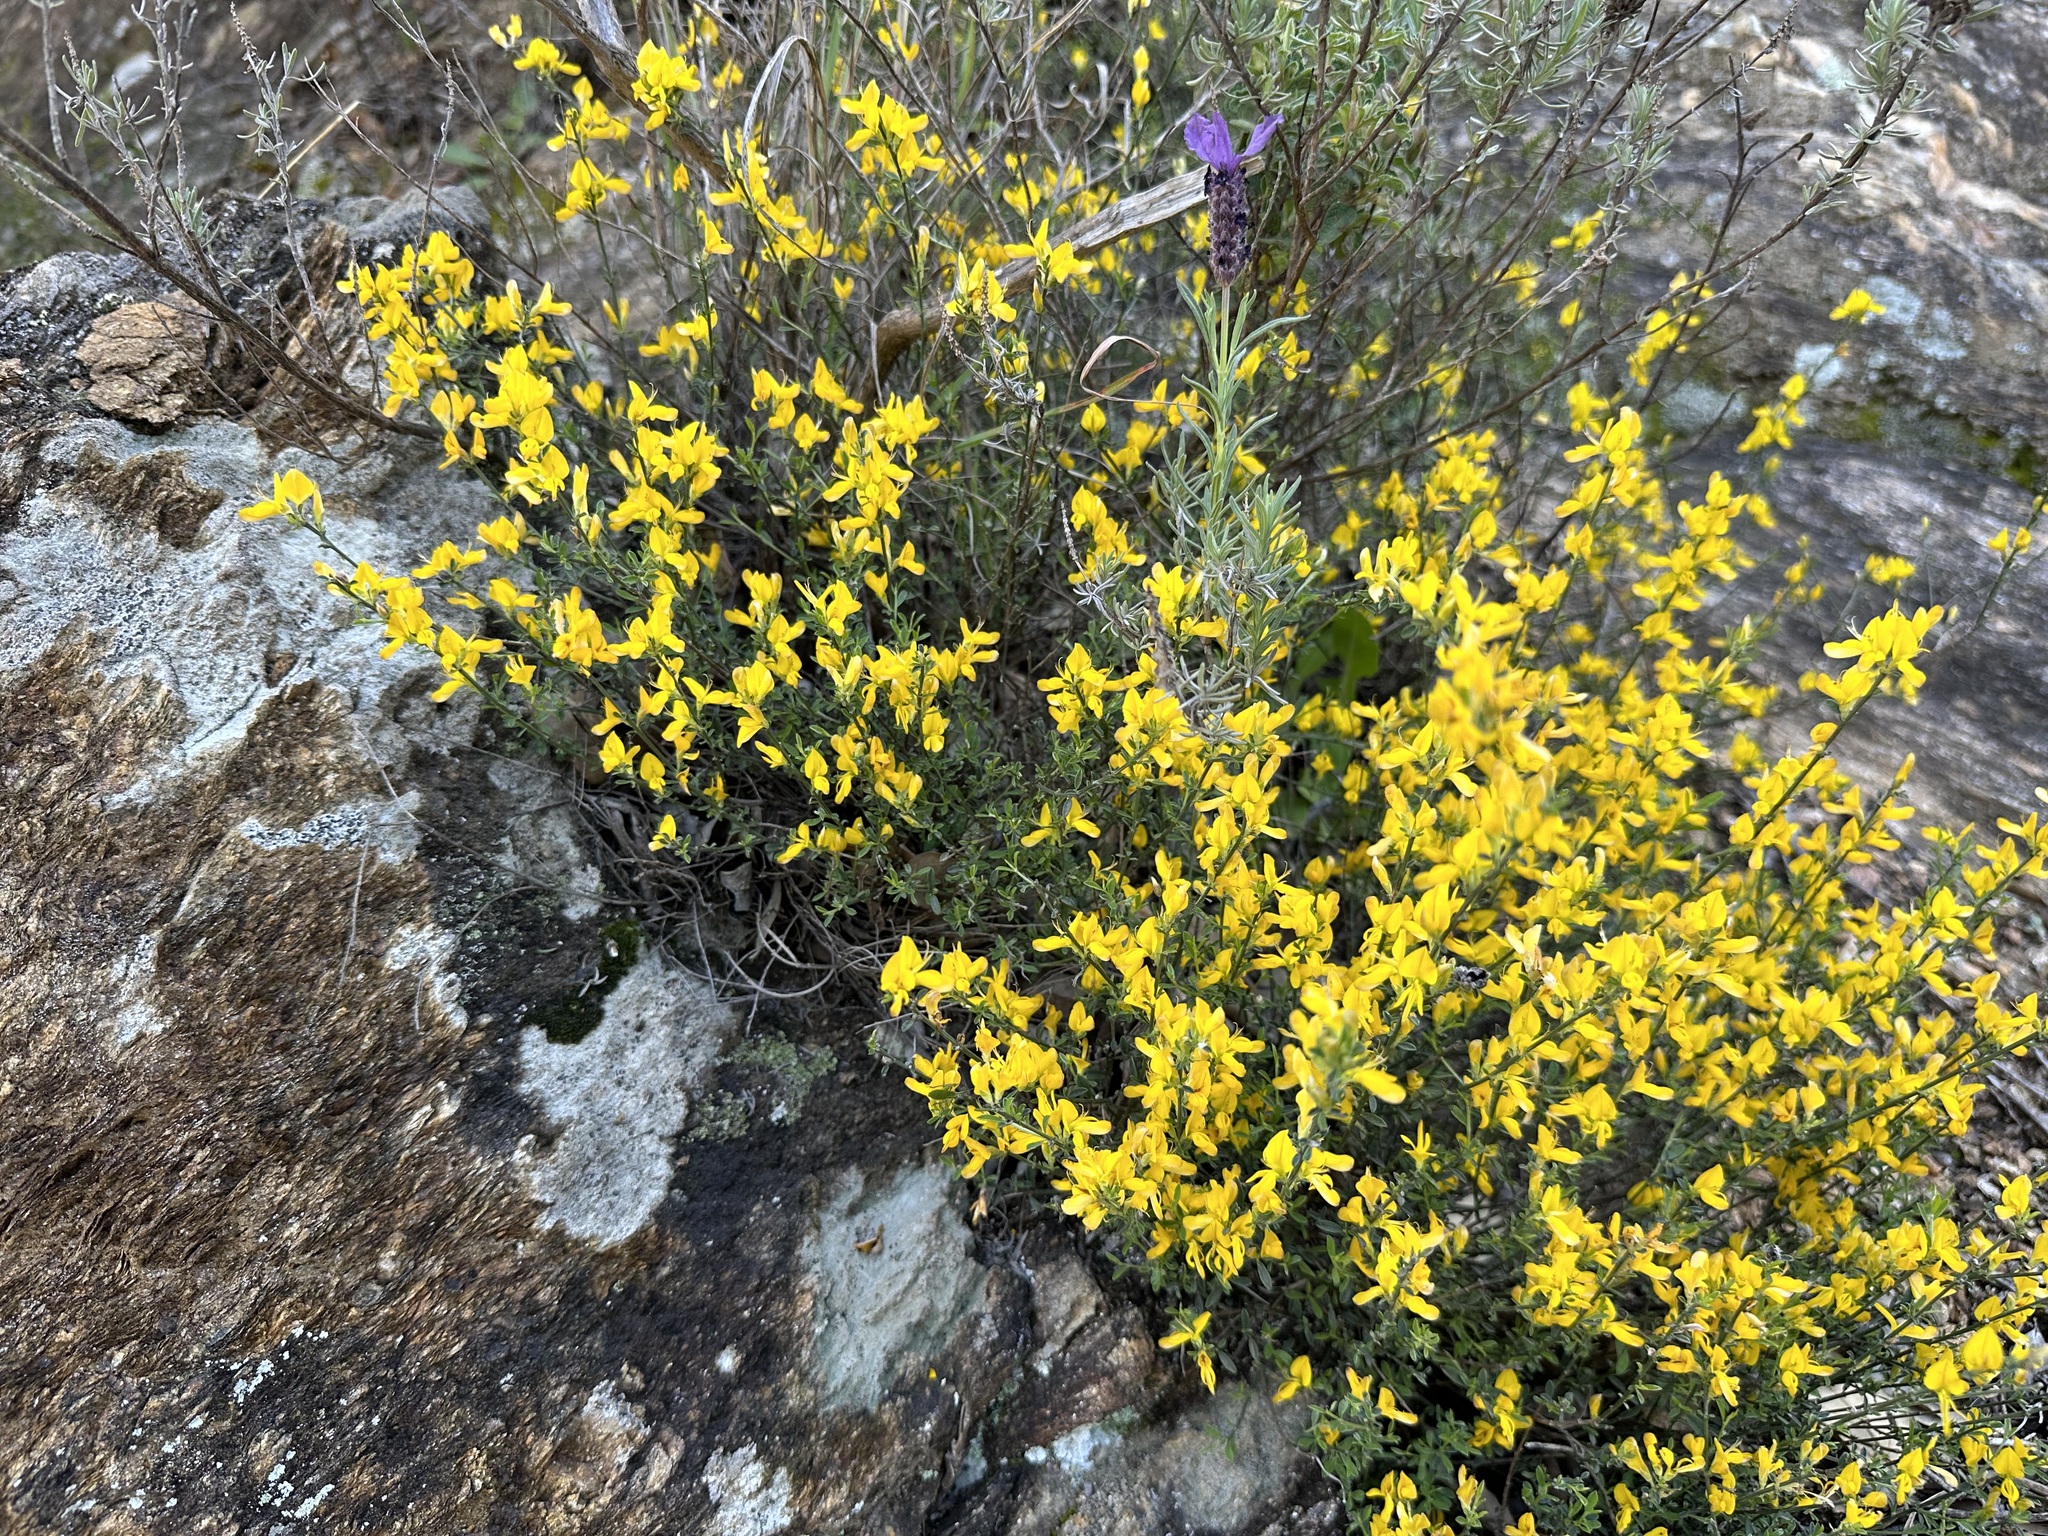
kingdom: Plantae
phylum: Tracheophyta
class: Magnoliopsida
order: Fabales
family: Fabaceae
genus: Genista
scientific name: Genista pilosa
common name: Hairy greenweed
